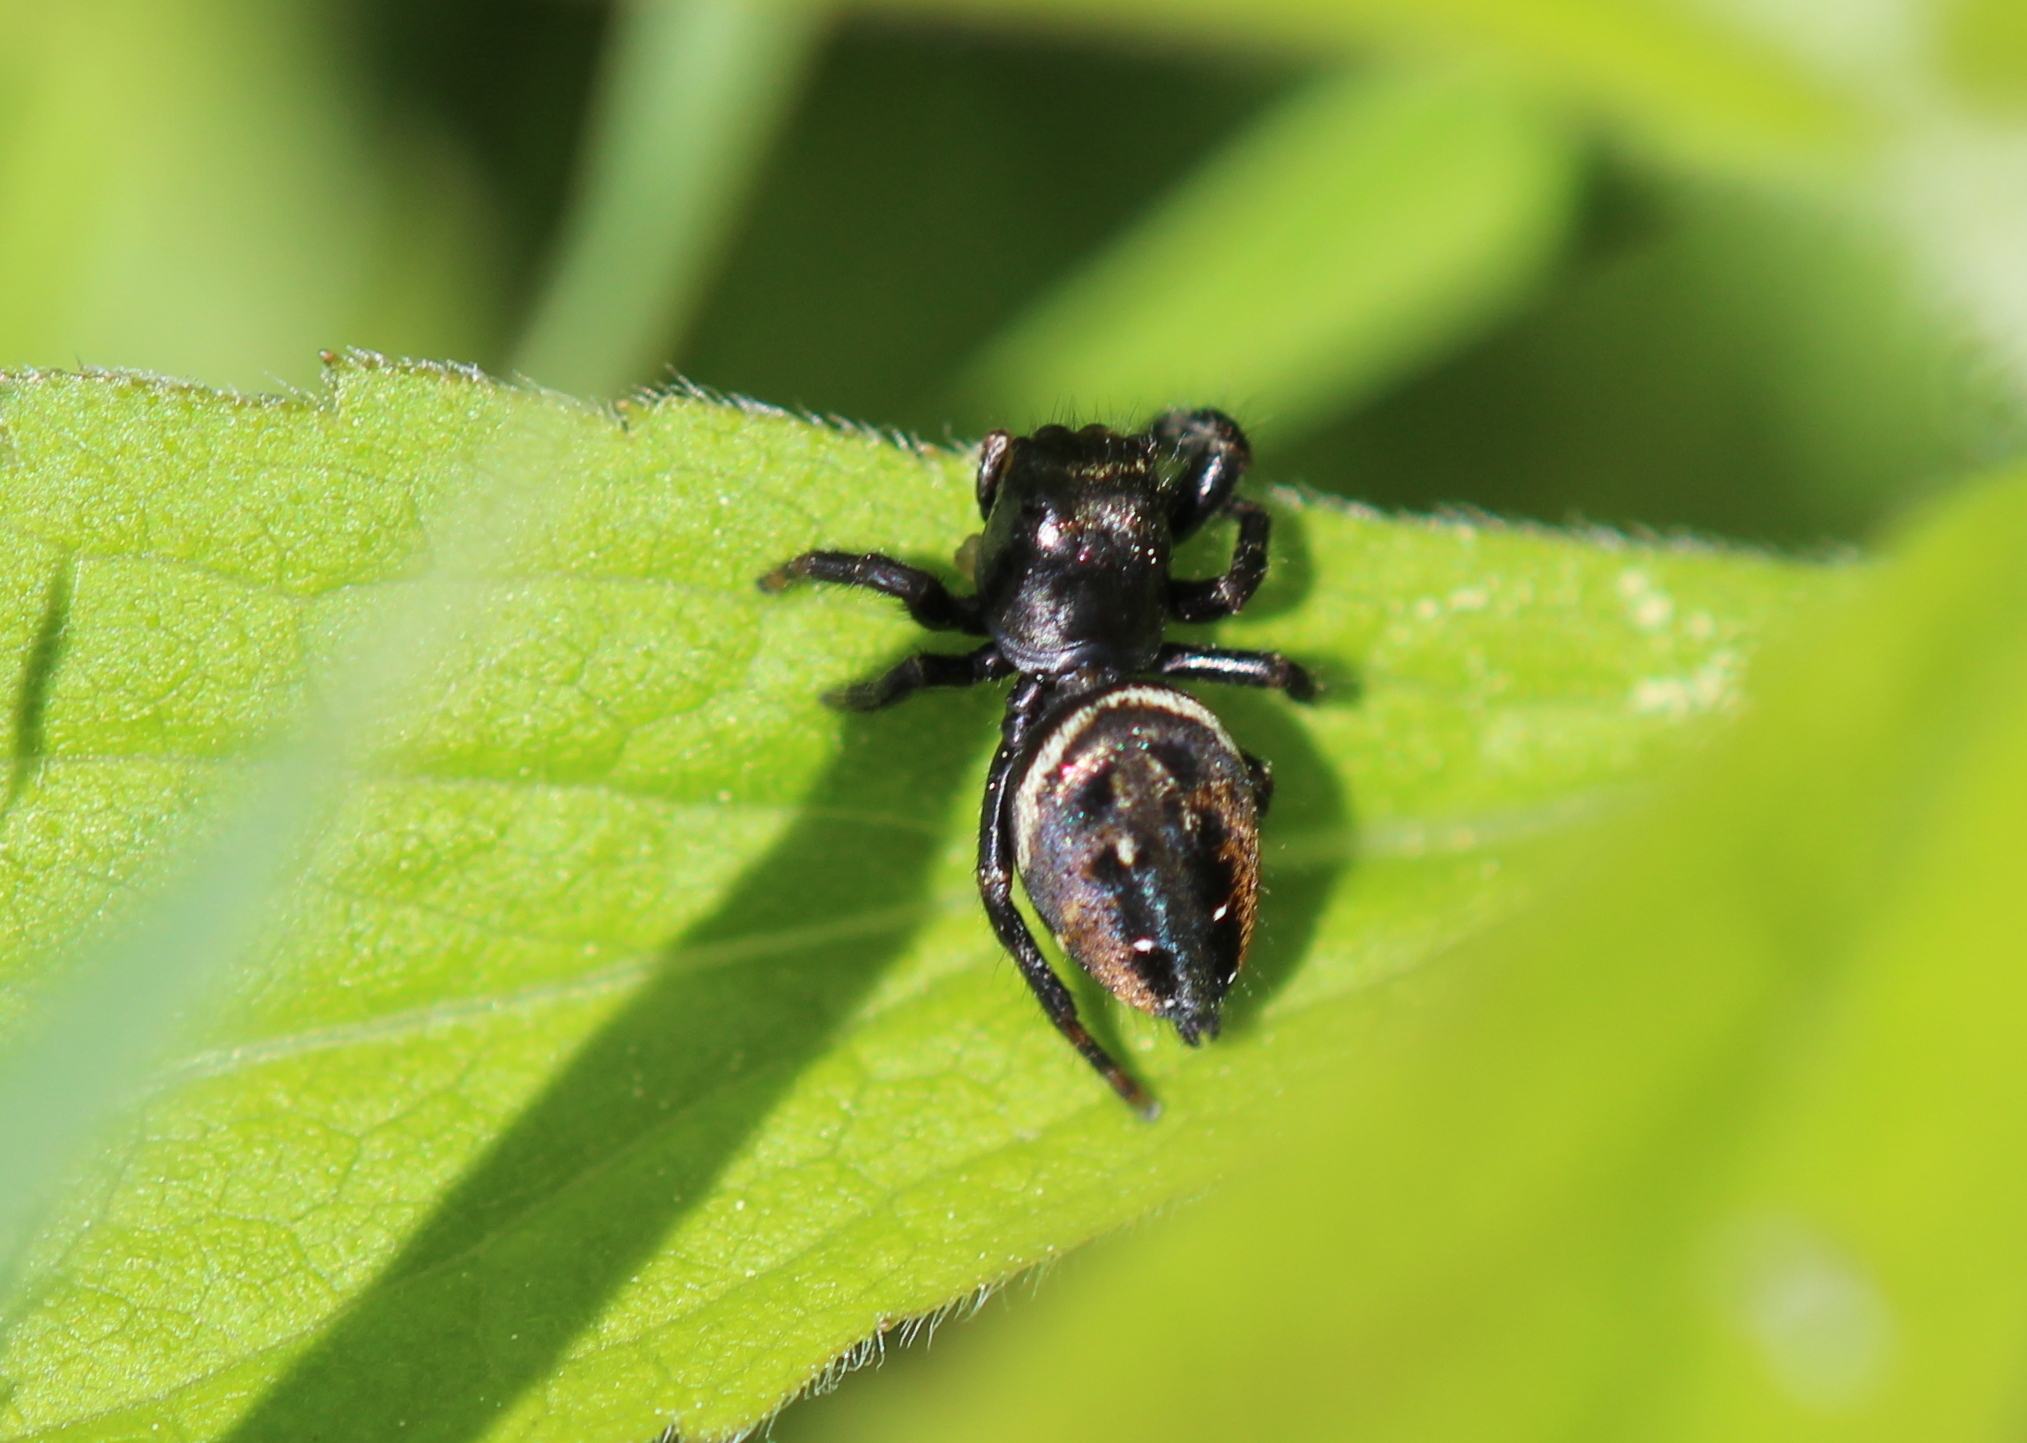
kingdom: Animalia
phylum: Arthropoda
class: Arachnida
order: Araneae
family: Salticidae
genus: Phidippus
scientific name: Phidippus clarus
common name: Brilliant jumping spider
